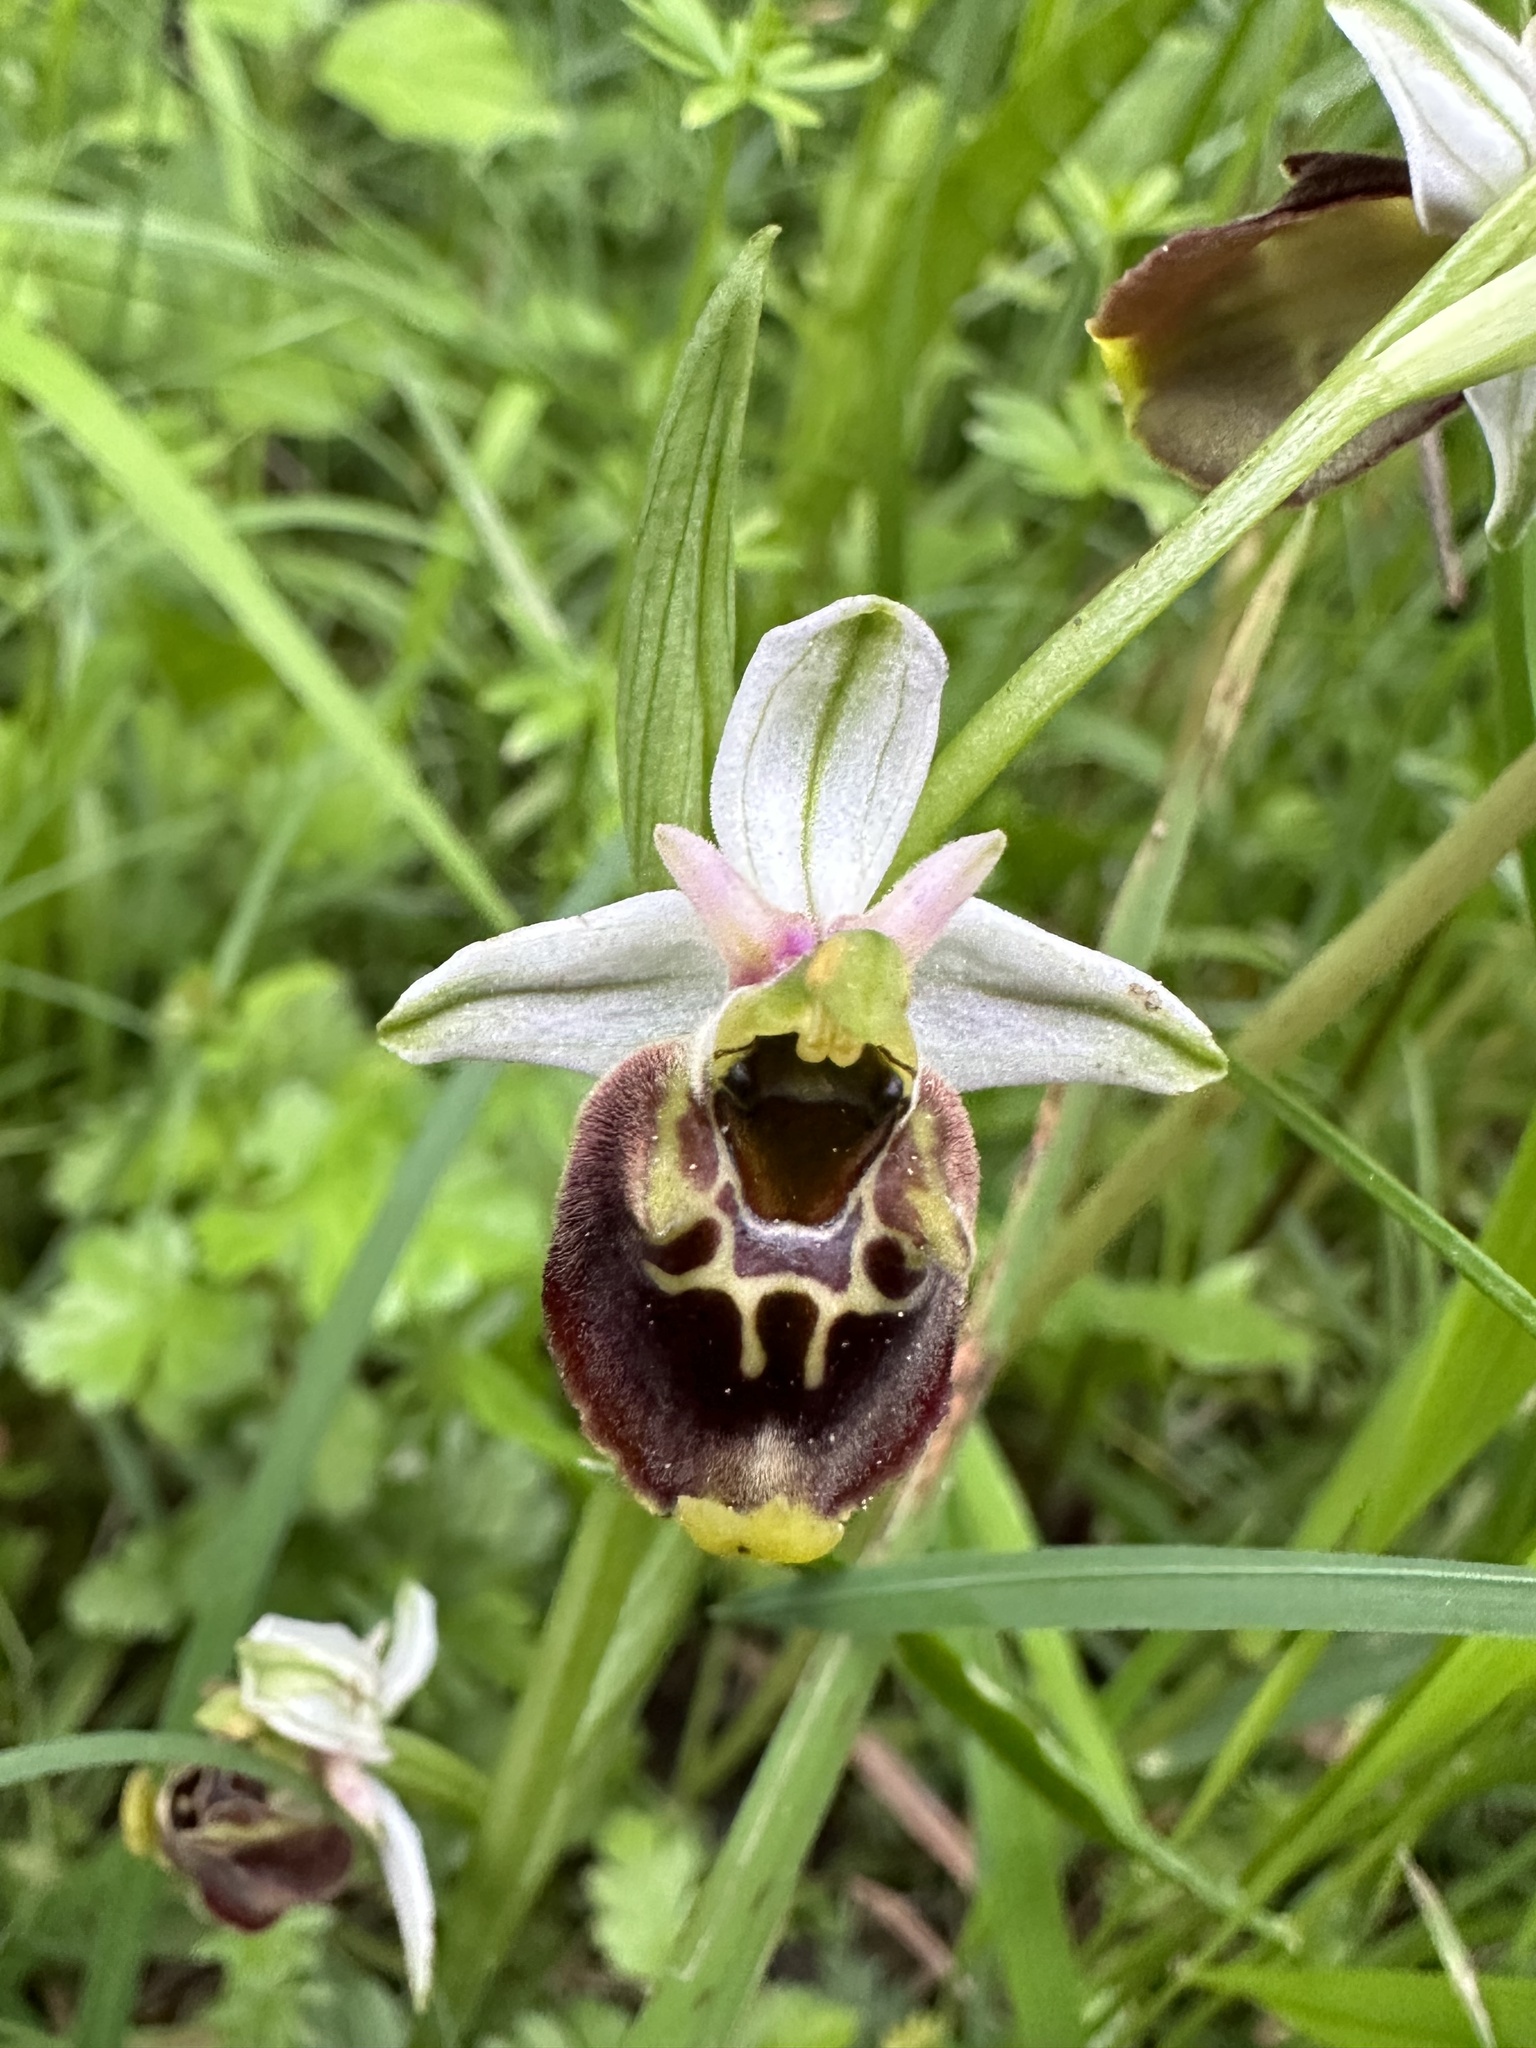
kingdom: Plantae
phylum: Tracheophyta
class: Liliopsida
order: Asparagales
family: Orchidaceae
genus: Ophrys
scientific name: Ophrys holosericea
